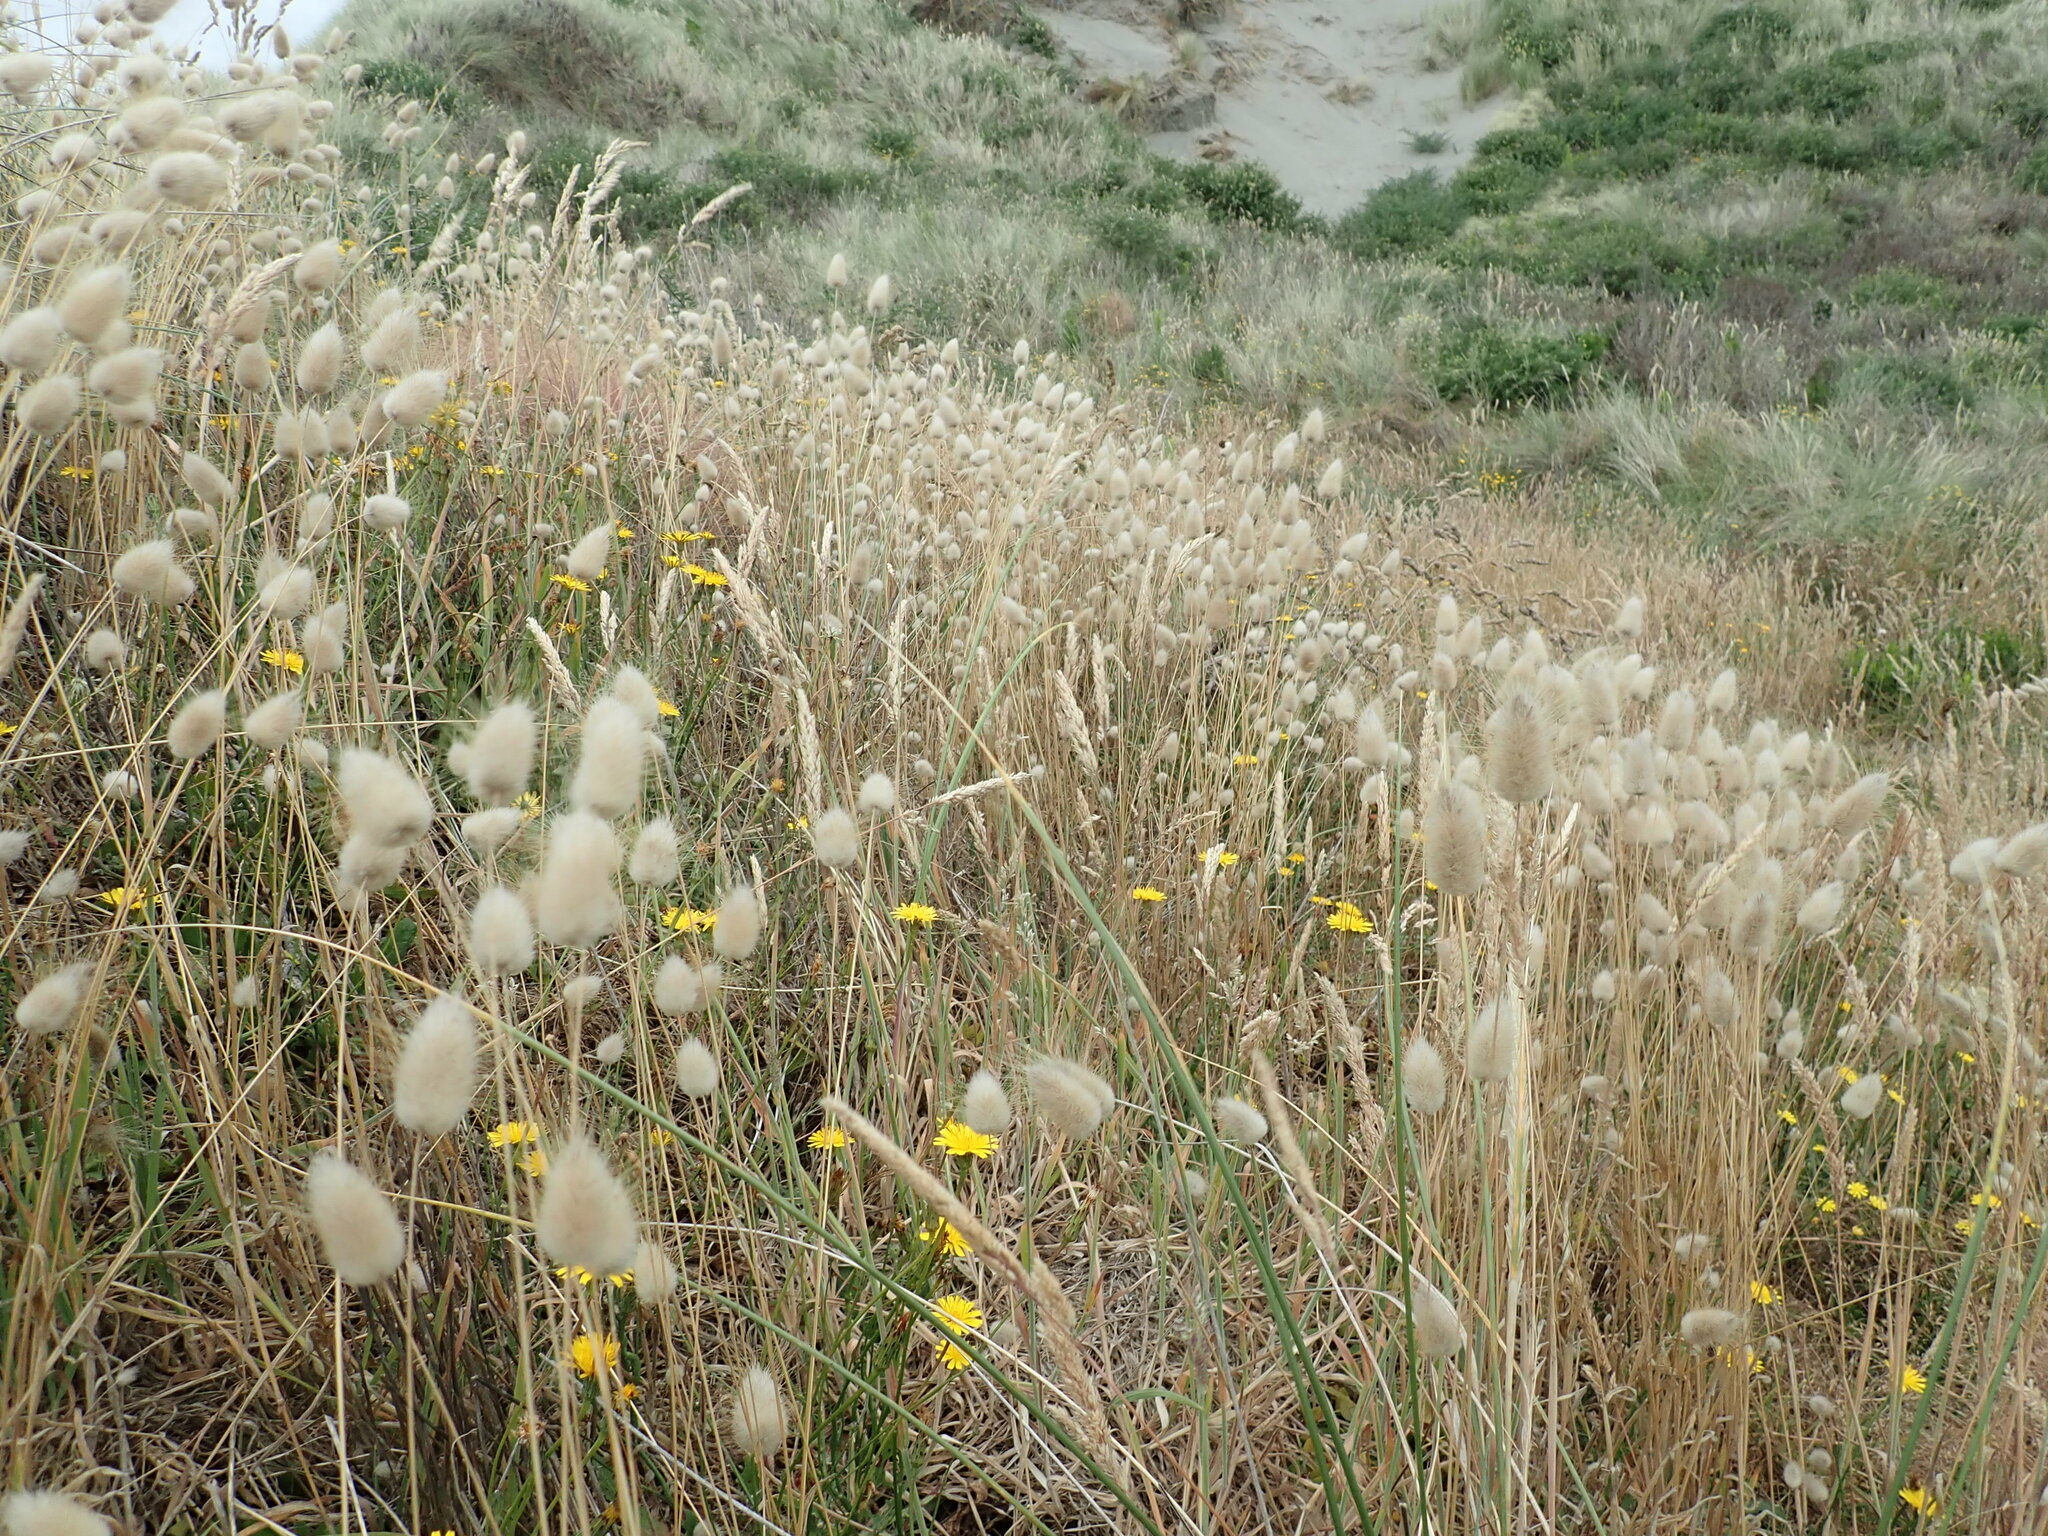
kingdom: Plantae
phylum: Tracheophyta
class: Liliopsida
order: Poales
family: Poaceae
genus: Lagurus
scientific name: Lagurus ovatus
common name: Hare's-tail
